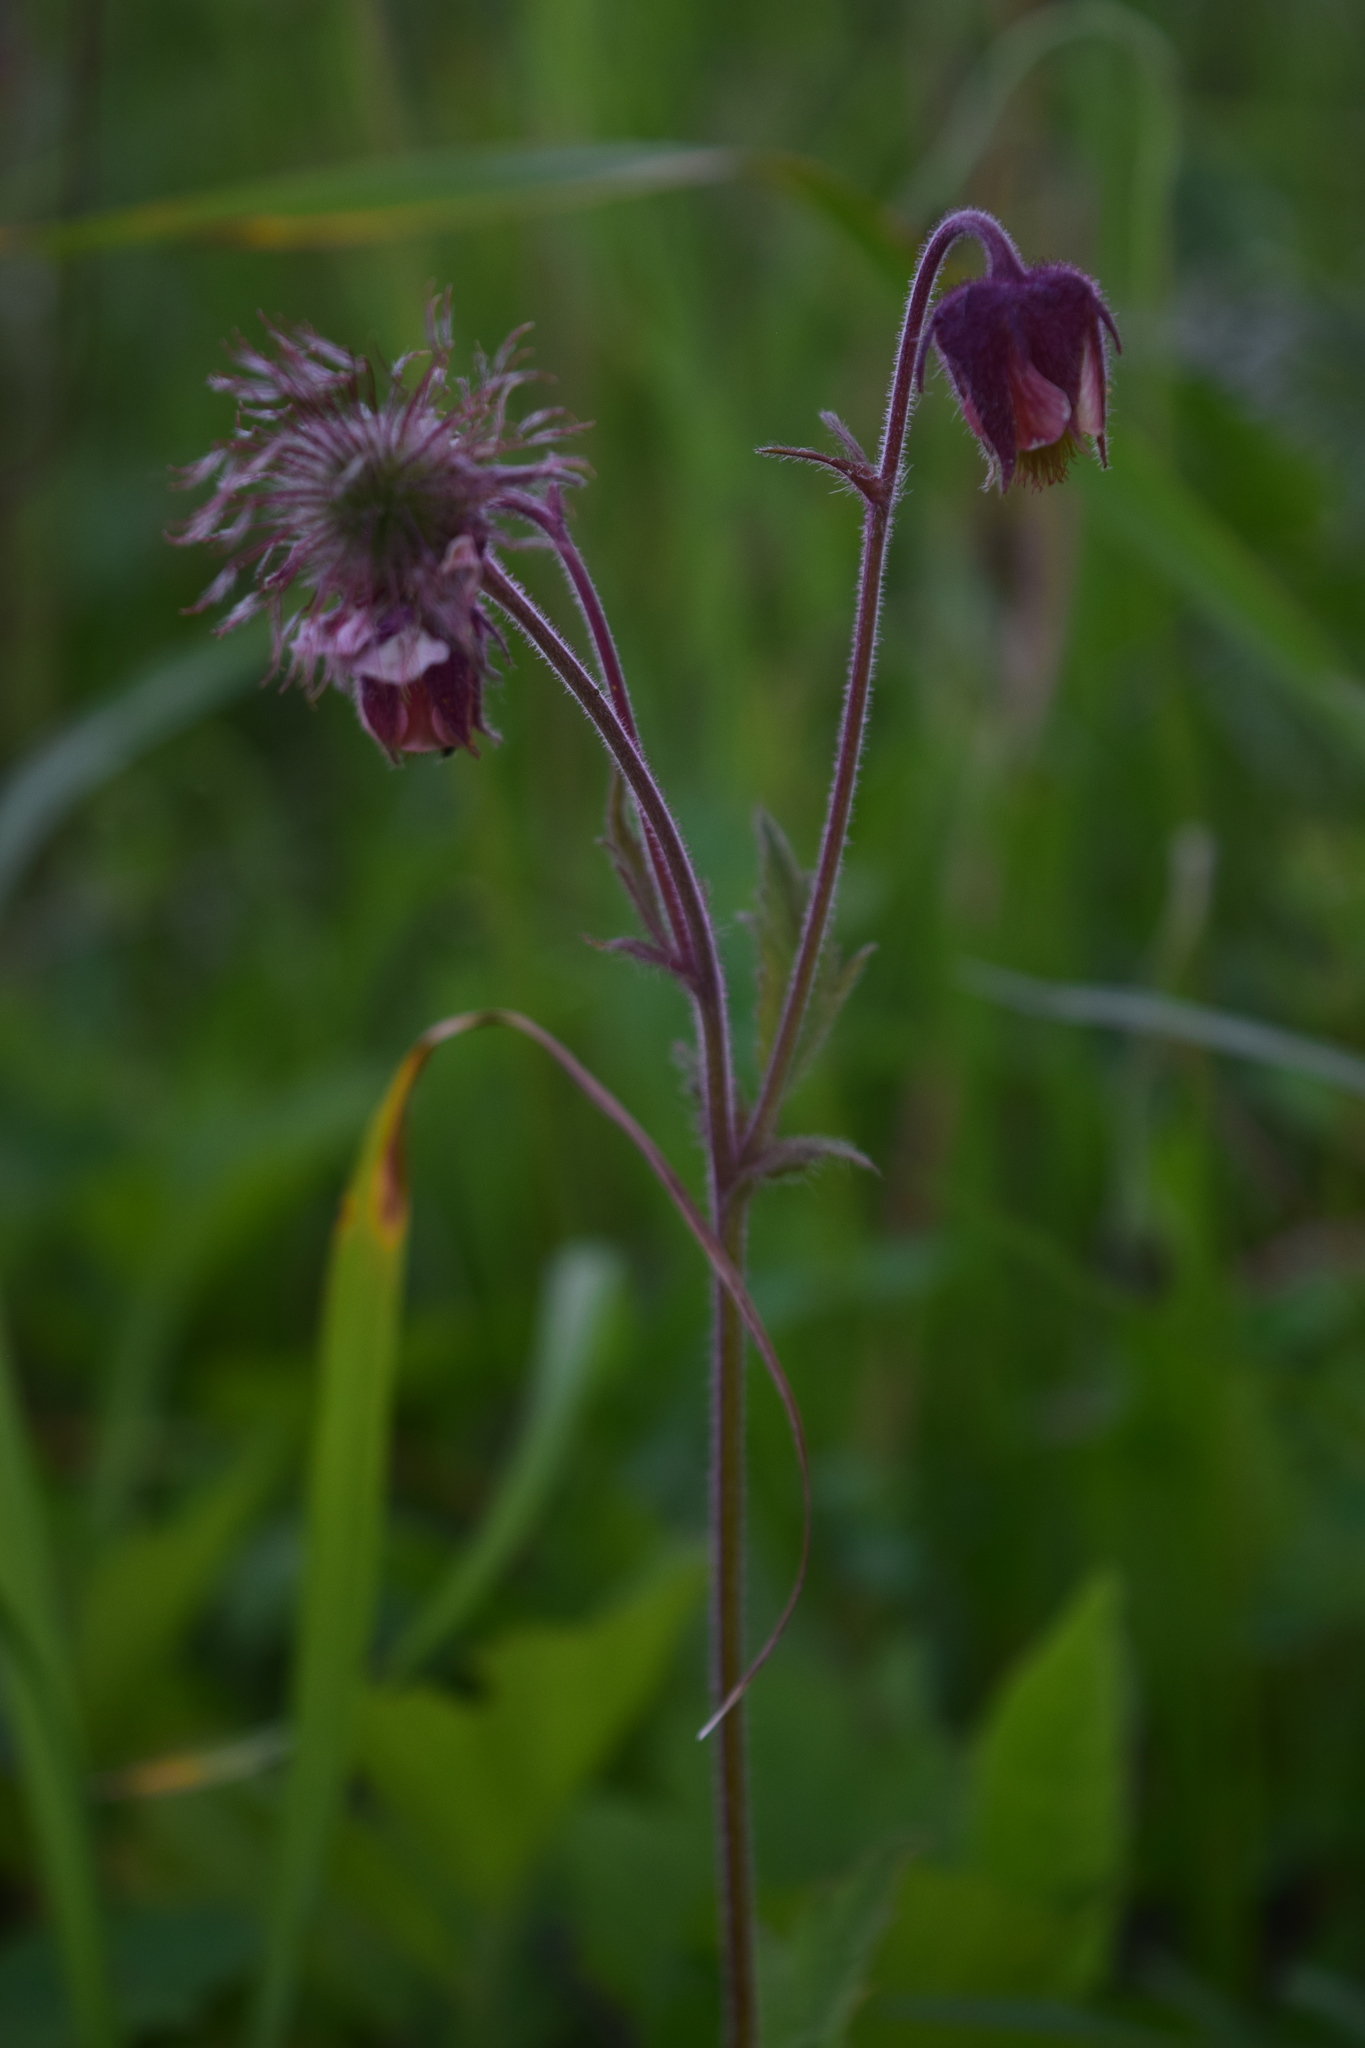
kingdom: Plantae
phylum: Tracheophyta
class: Magnoliopsida
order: Rosales
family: Rosaceae
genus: Geum
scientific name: Geum rivale
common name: Water avens
